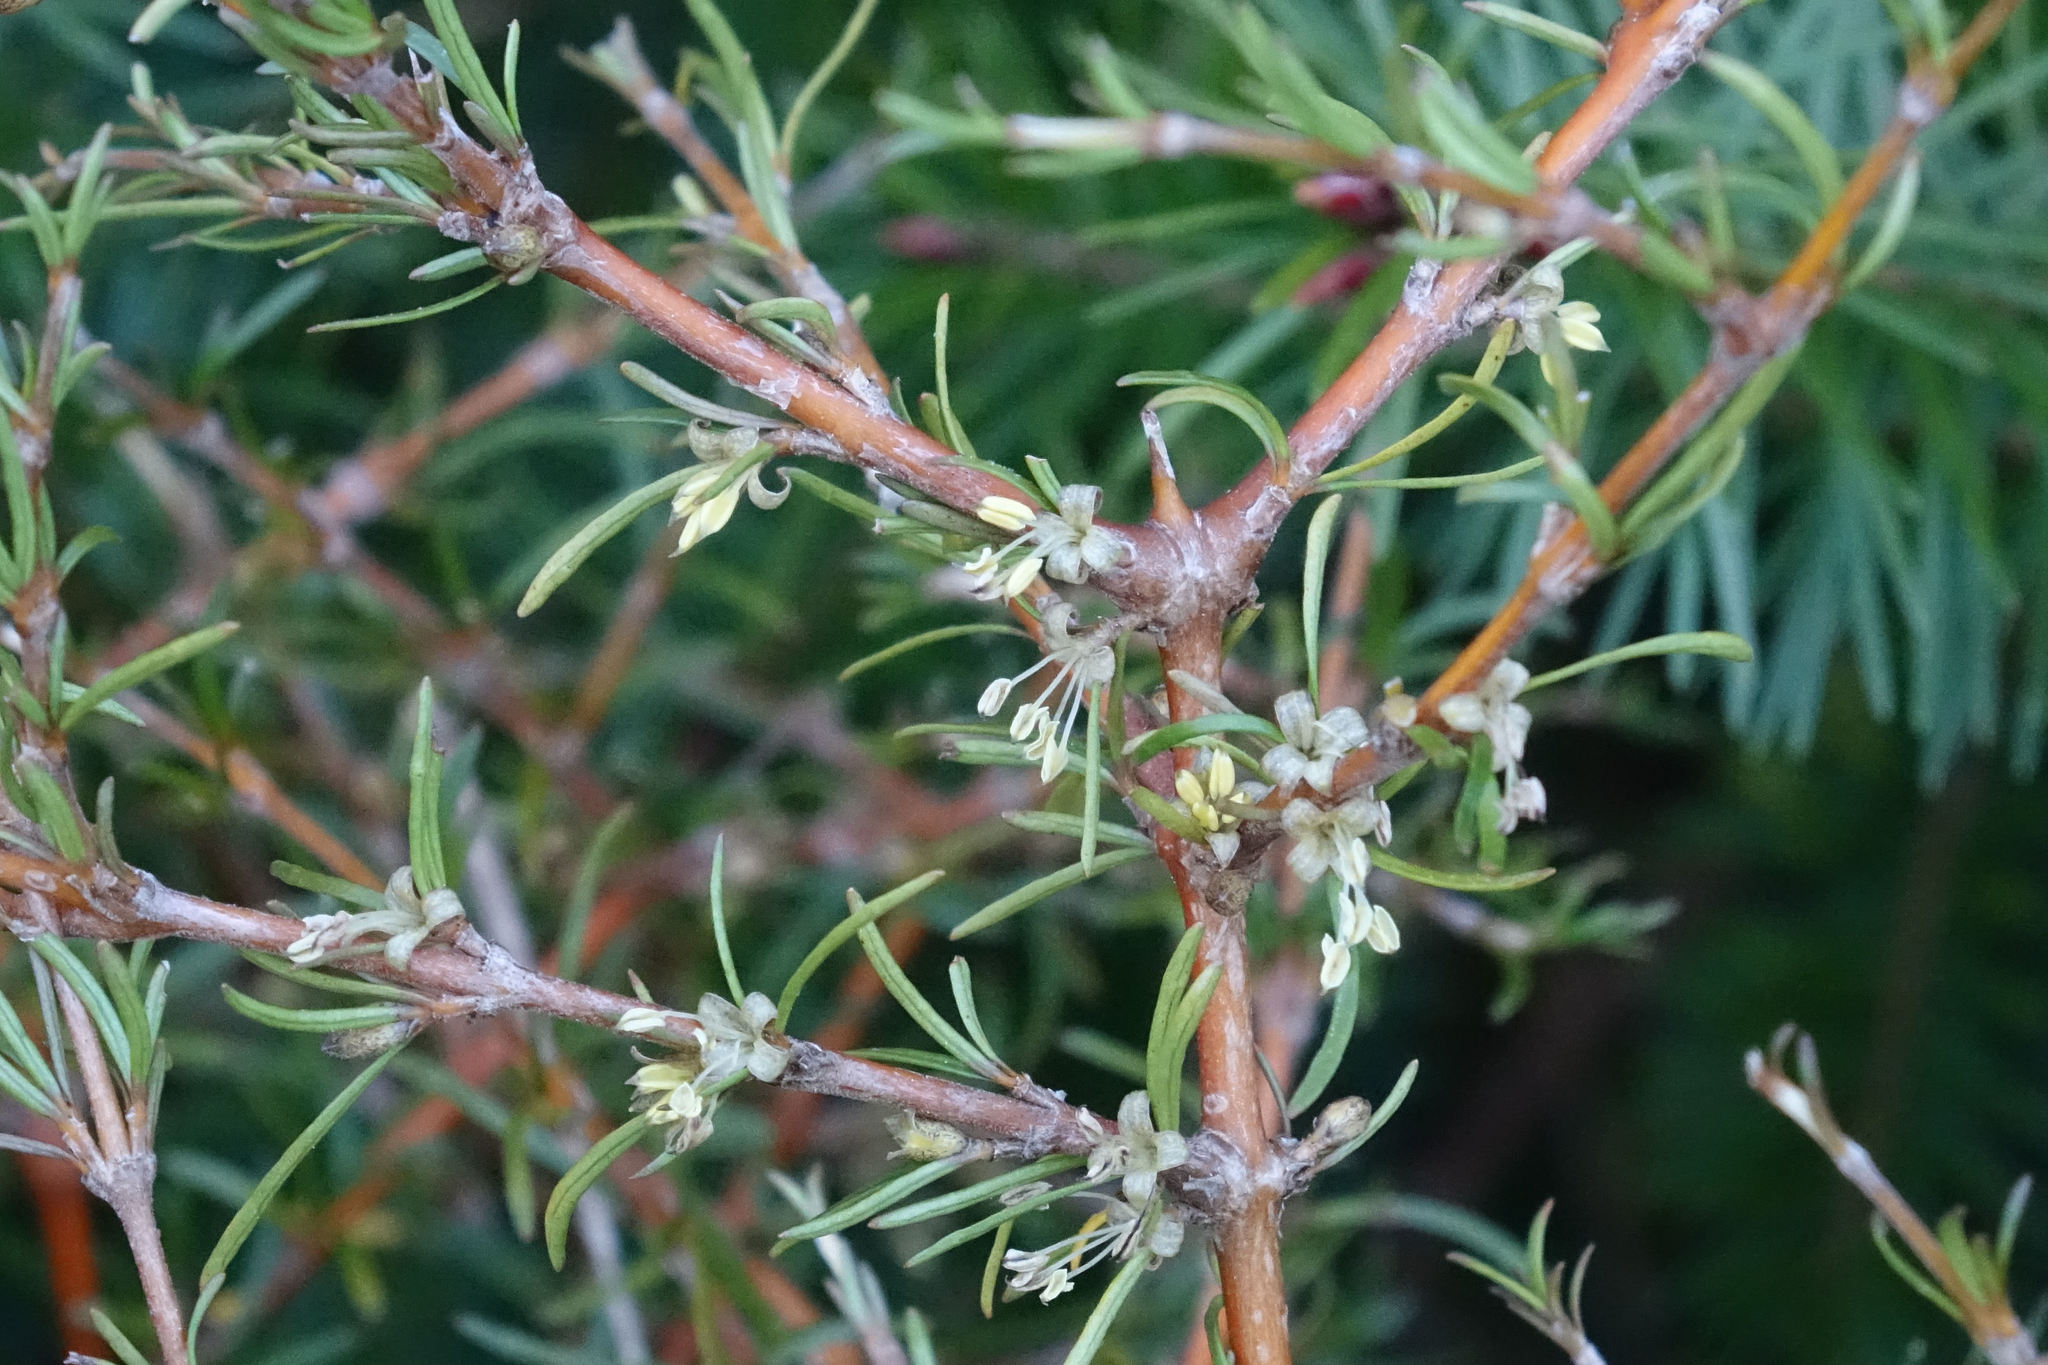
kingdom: Plantae
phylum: Tracheophyta
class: Magnoliopsida
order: Gentianales
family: Rubiaceae
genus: Coprosma
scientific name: Coprosma rugosa
